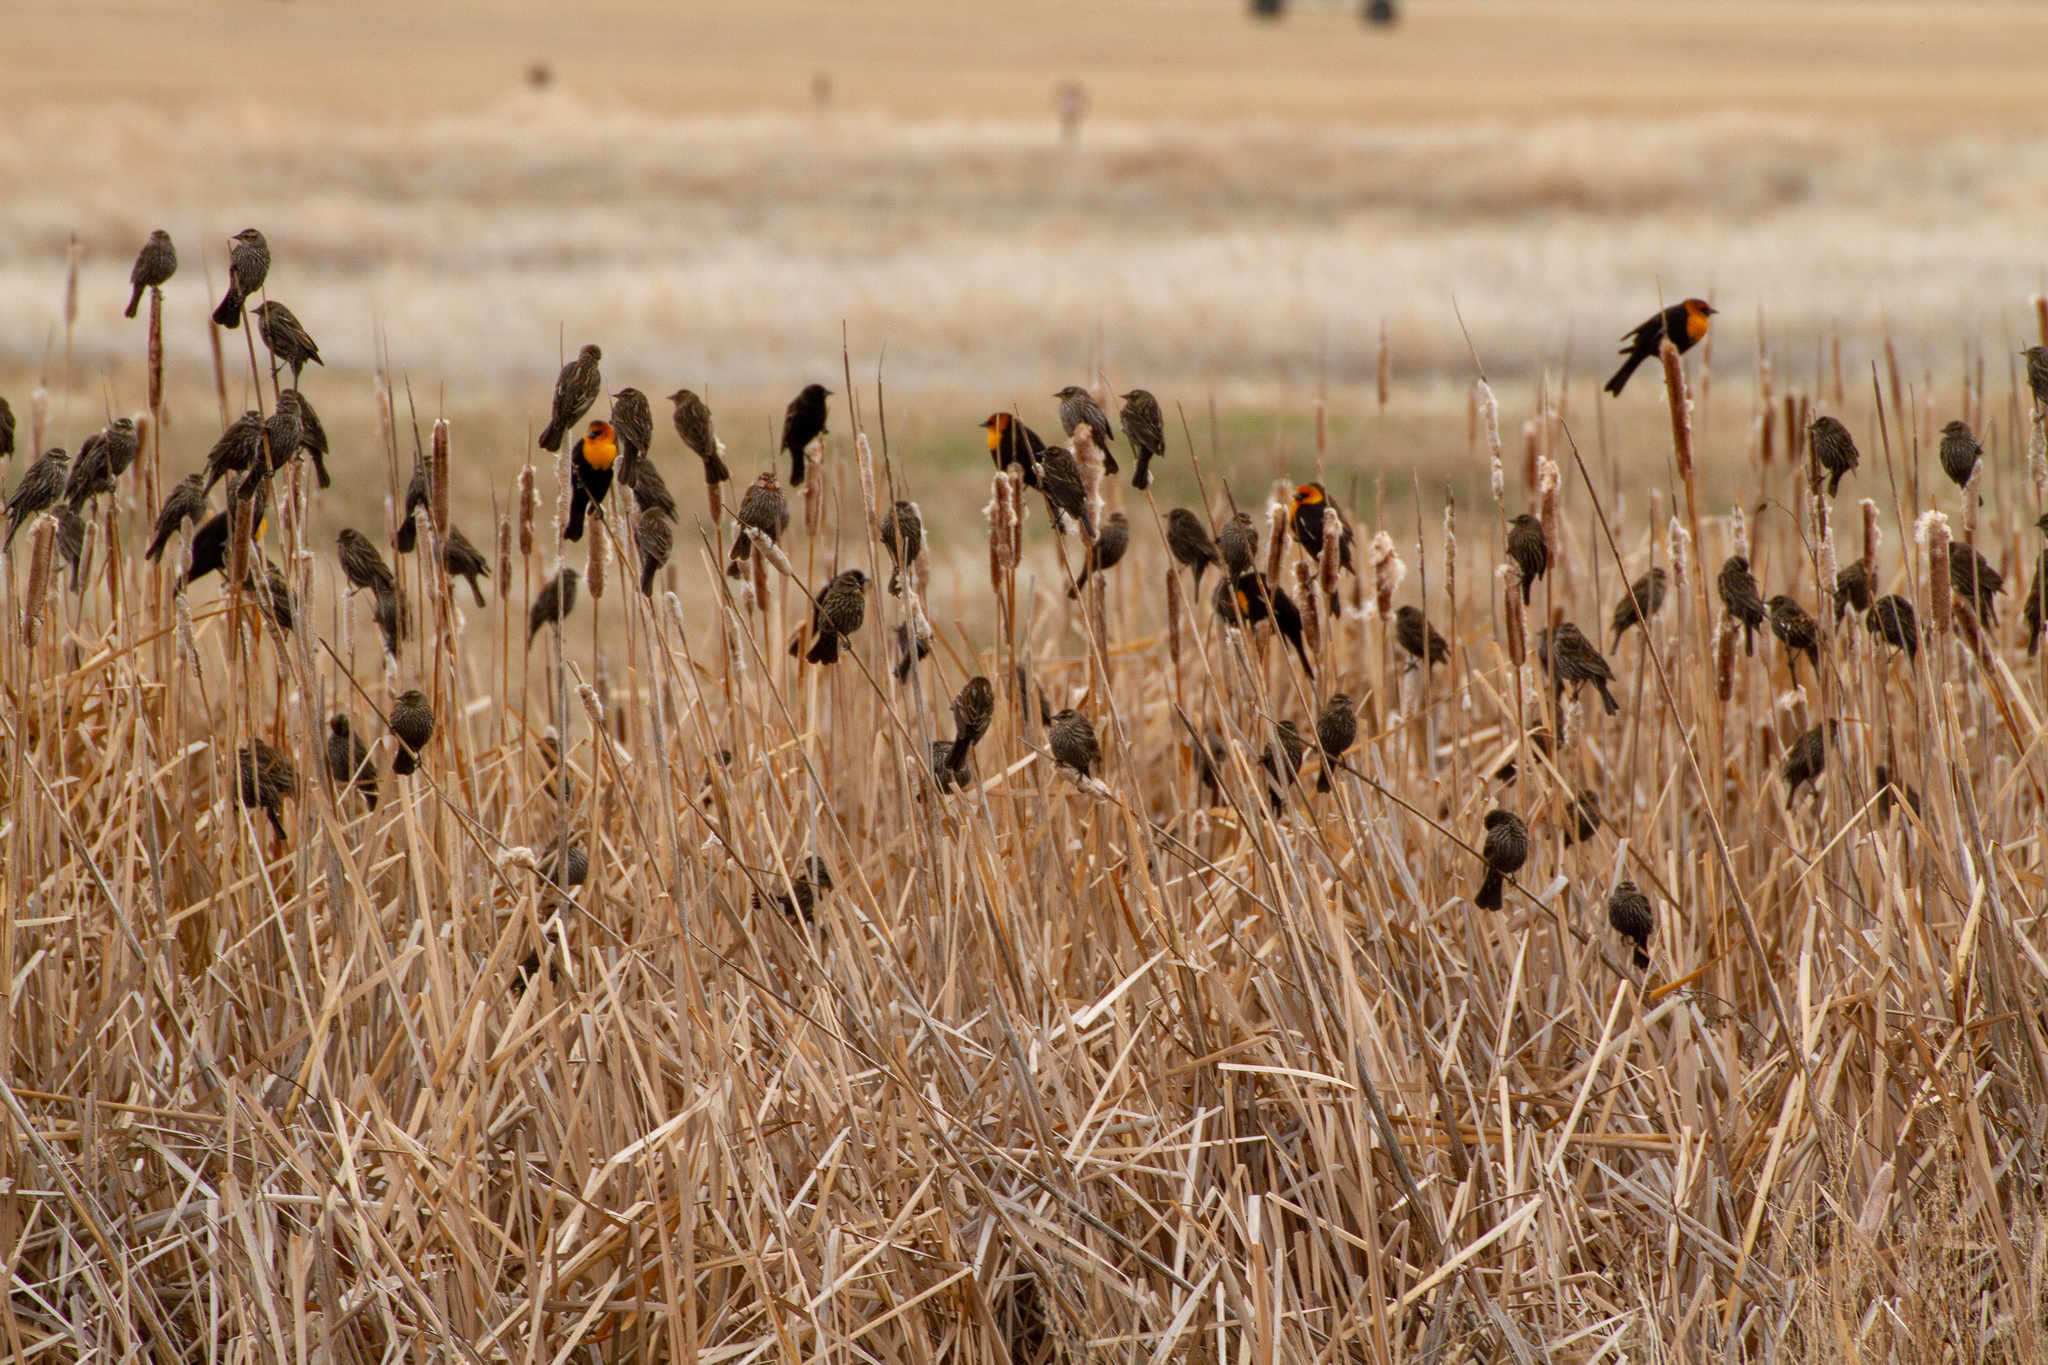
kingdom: Animalia
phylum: Chordata
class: Aves
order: Passeriformes
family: Icteridae
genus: Xanthocephalus
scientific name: Xanthocephalus xanthocephalus
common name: Yellow-headed blackbird
